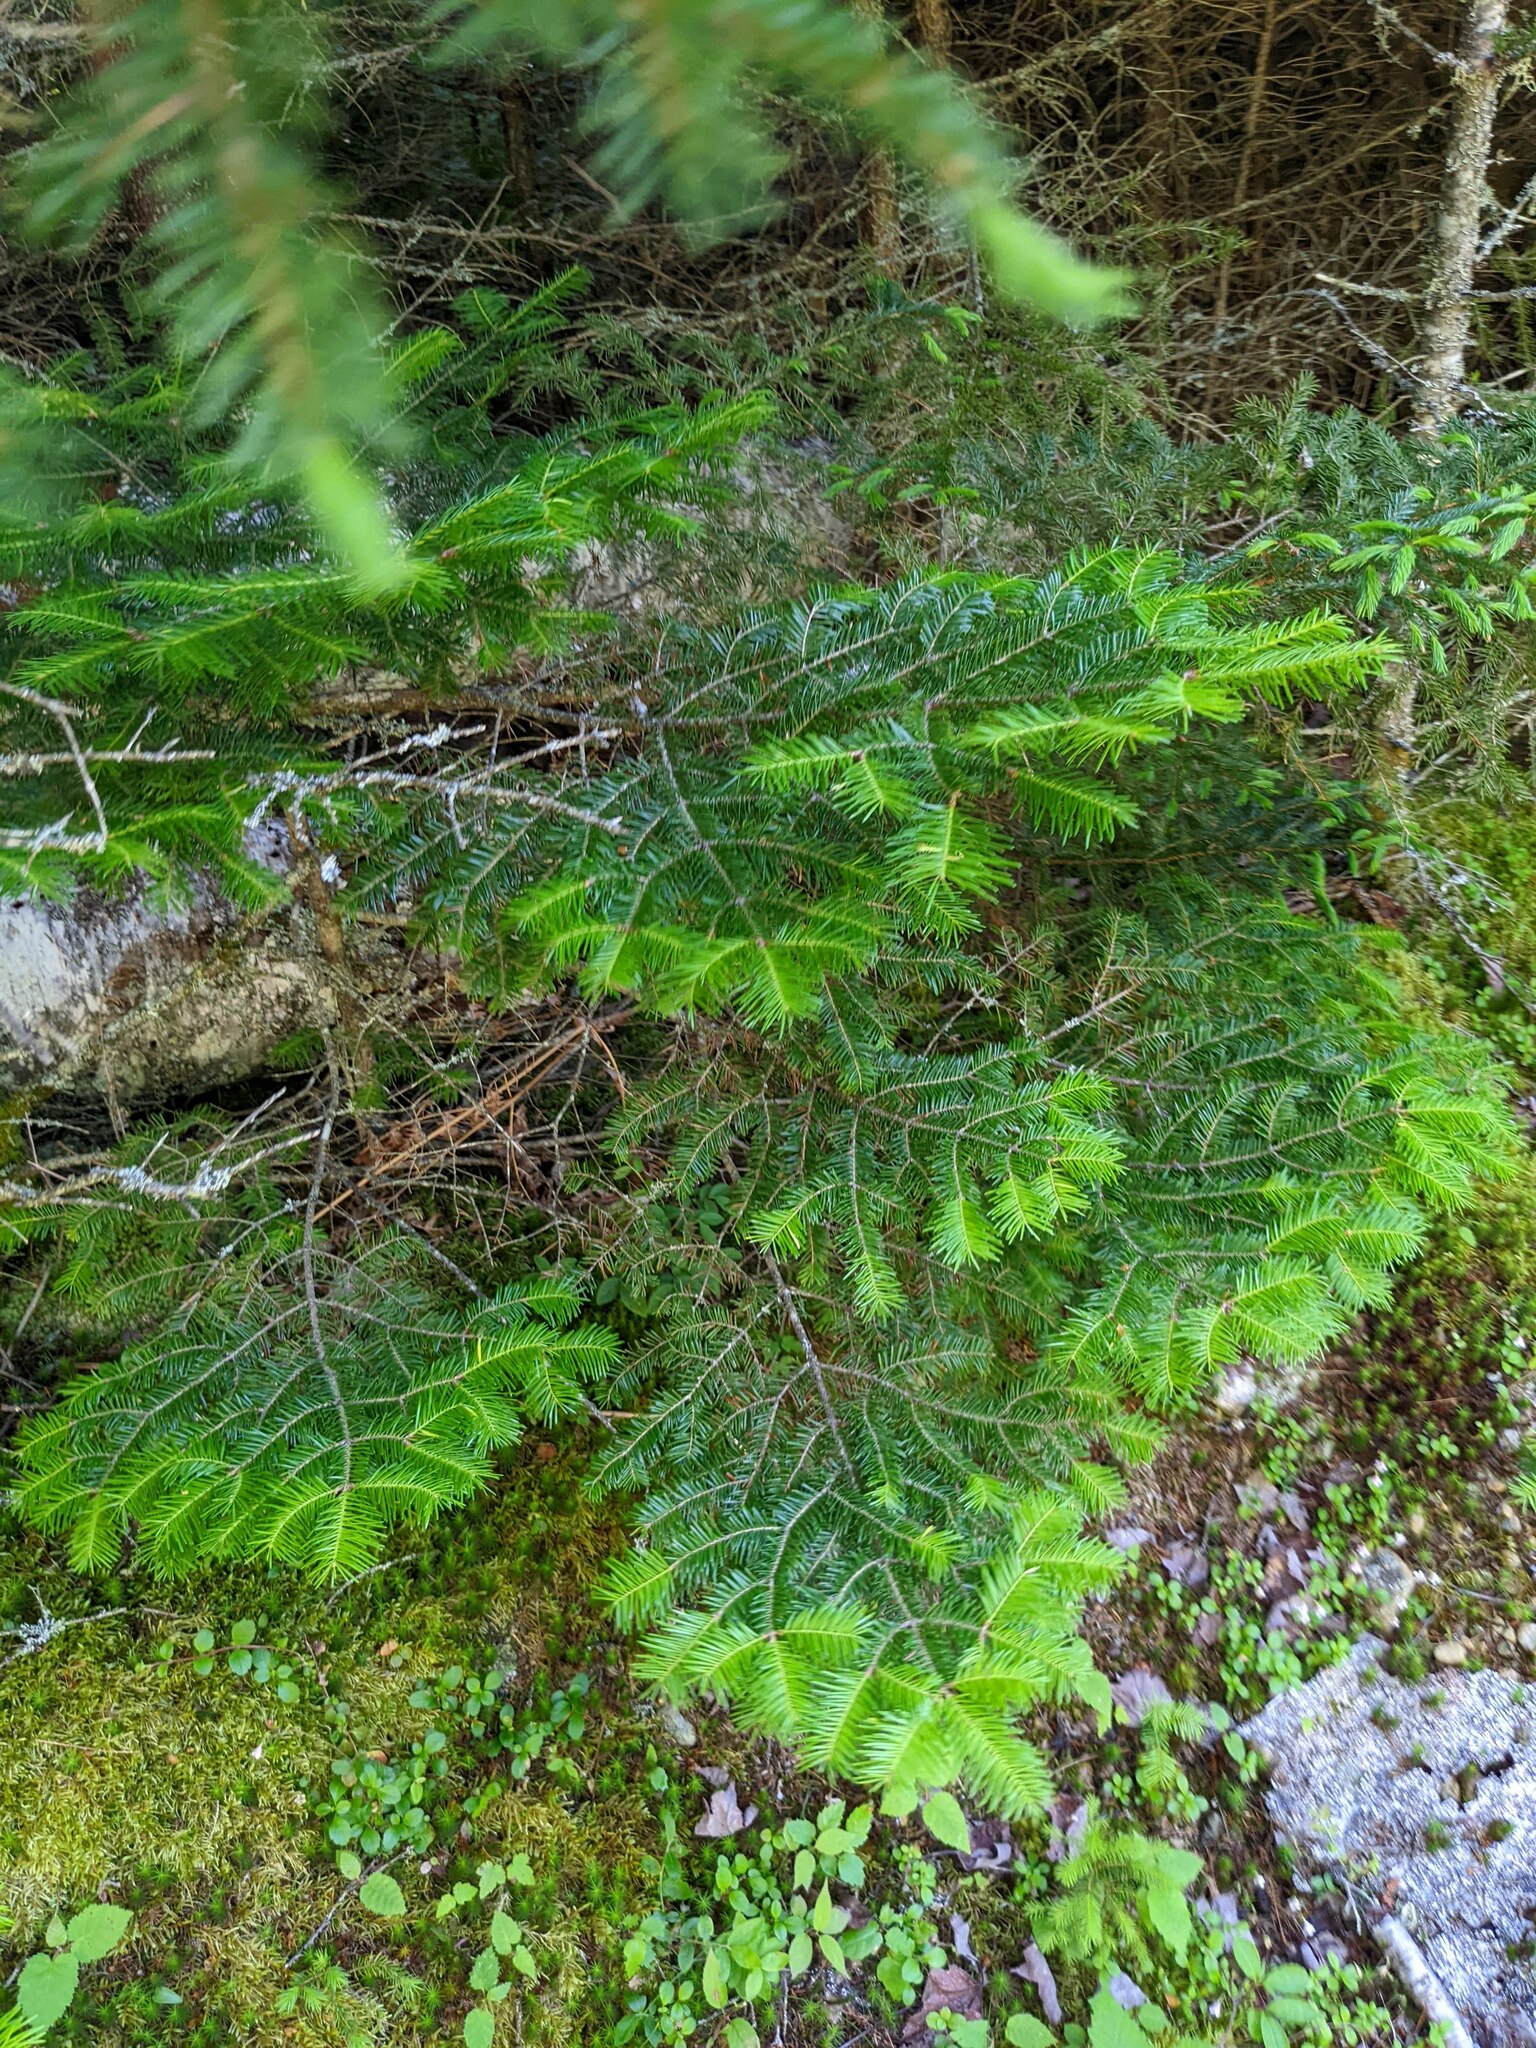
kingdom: Plantae
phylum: Tracheophyta
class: Pinopsida
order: Pinales
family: Pinaceae
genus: Abies
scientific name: Abies balsamea
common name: Balsam fir
